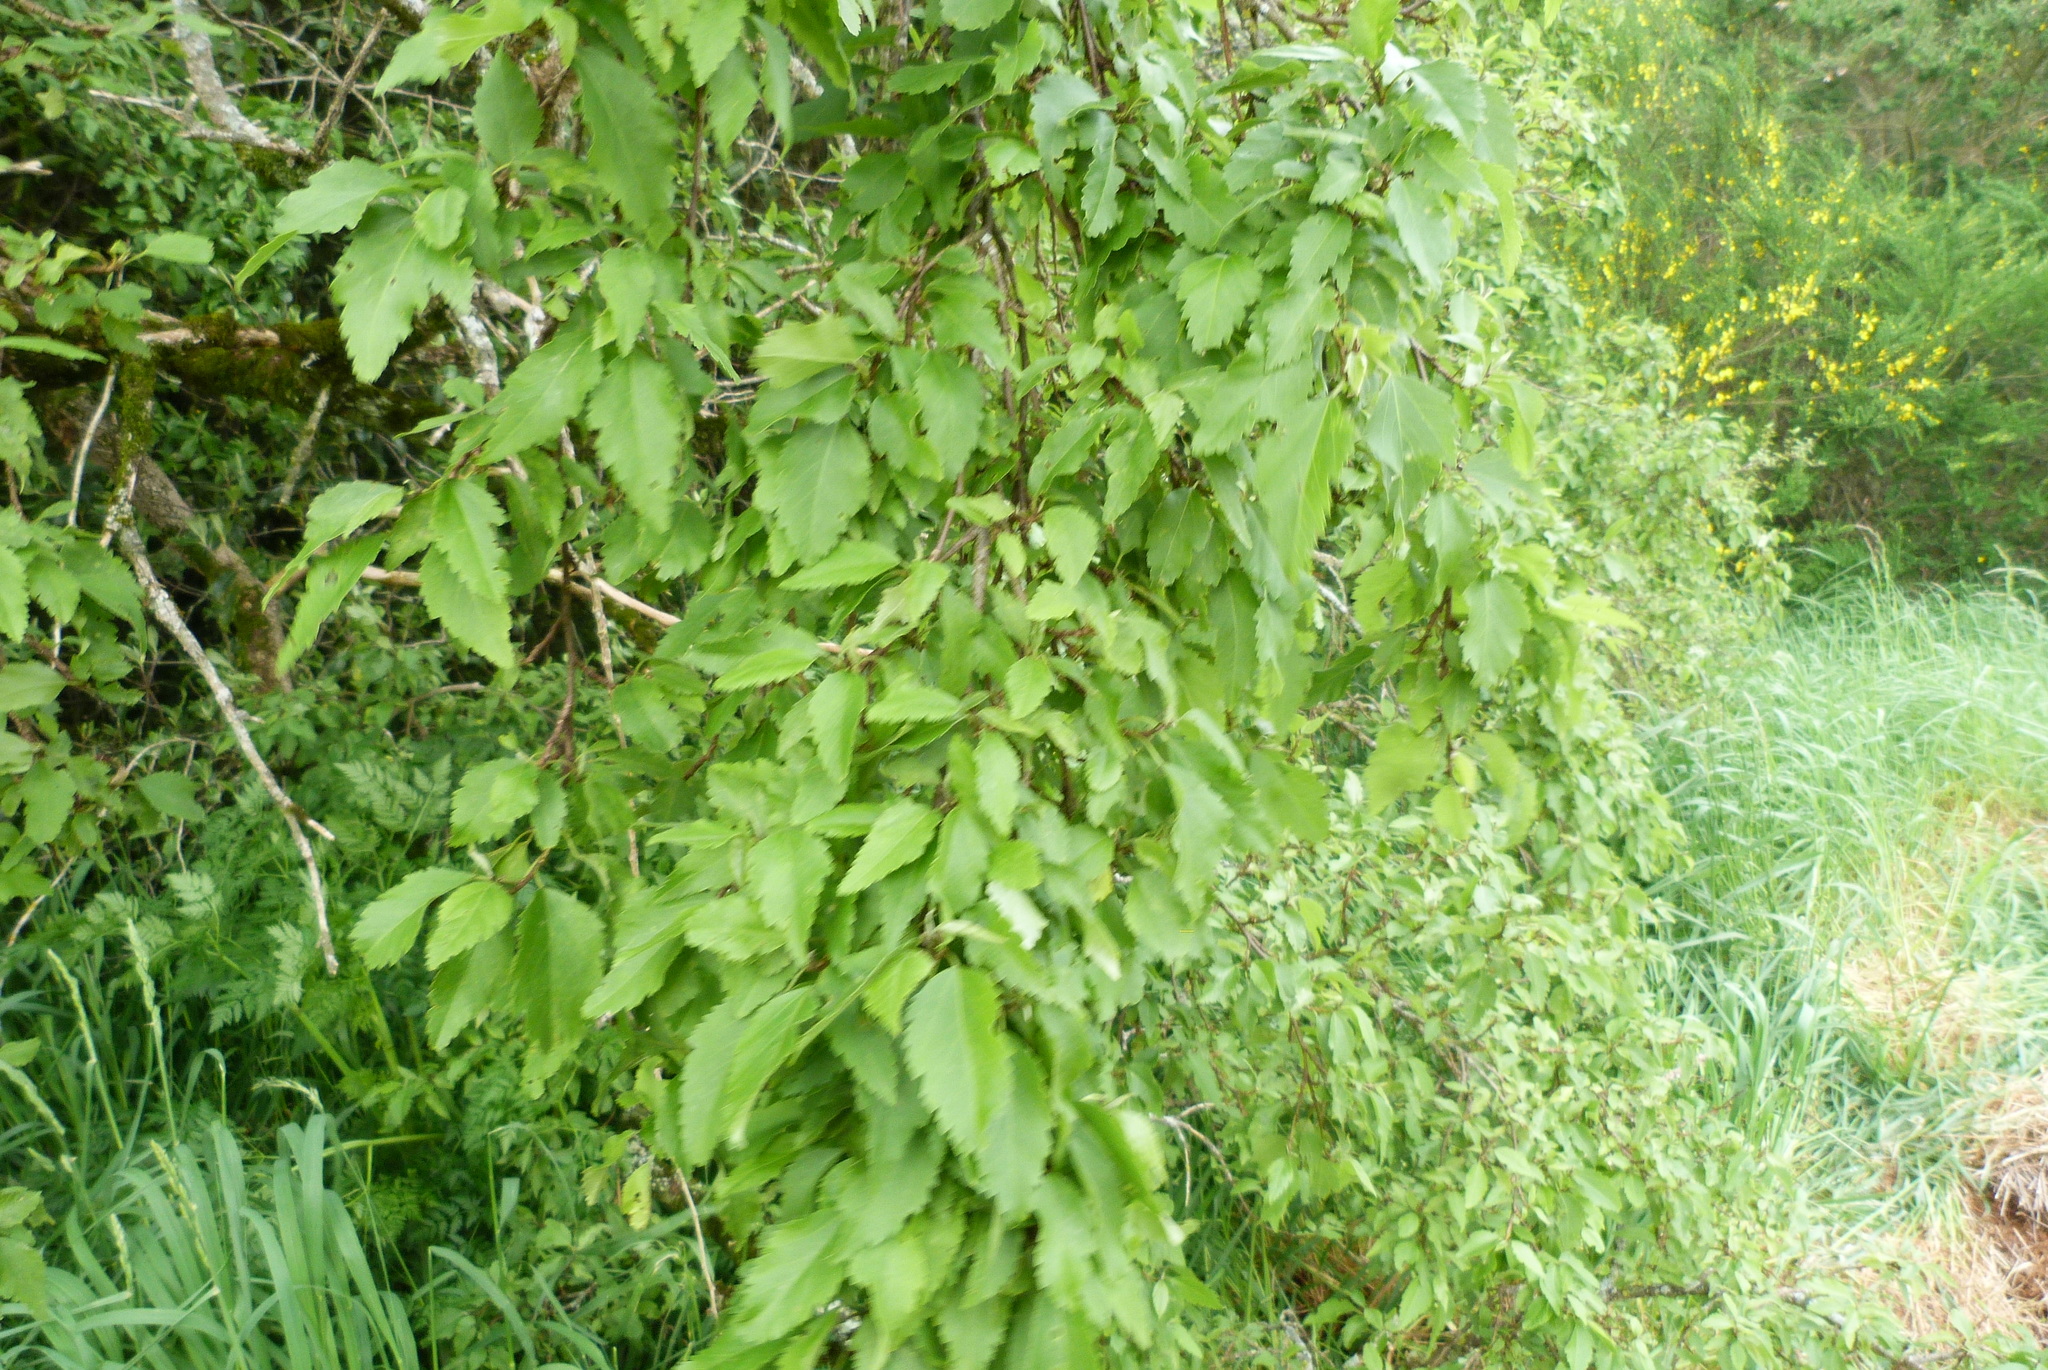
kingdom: Plantae
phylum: Tracheophyta
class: Magnoliopsida
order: Malvales
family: Malvaceae
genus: Plagianthus
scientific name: Plagianthus regius
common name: Manatu
